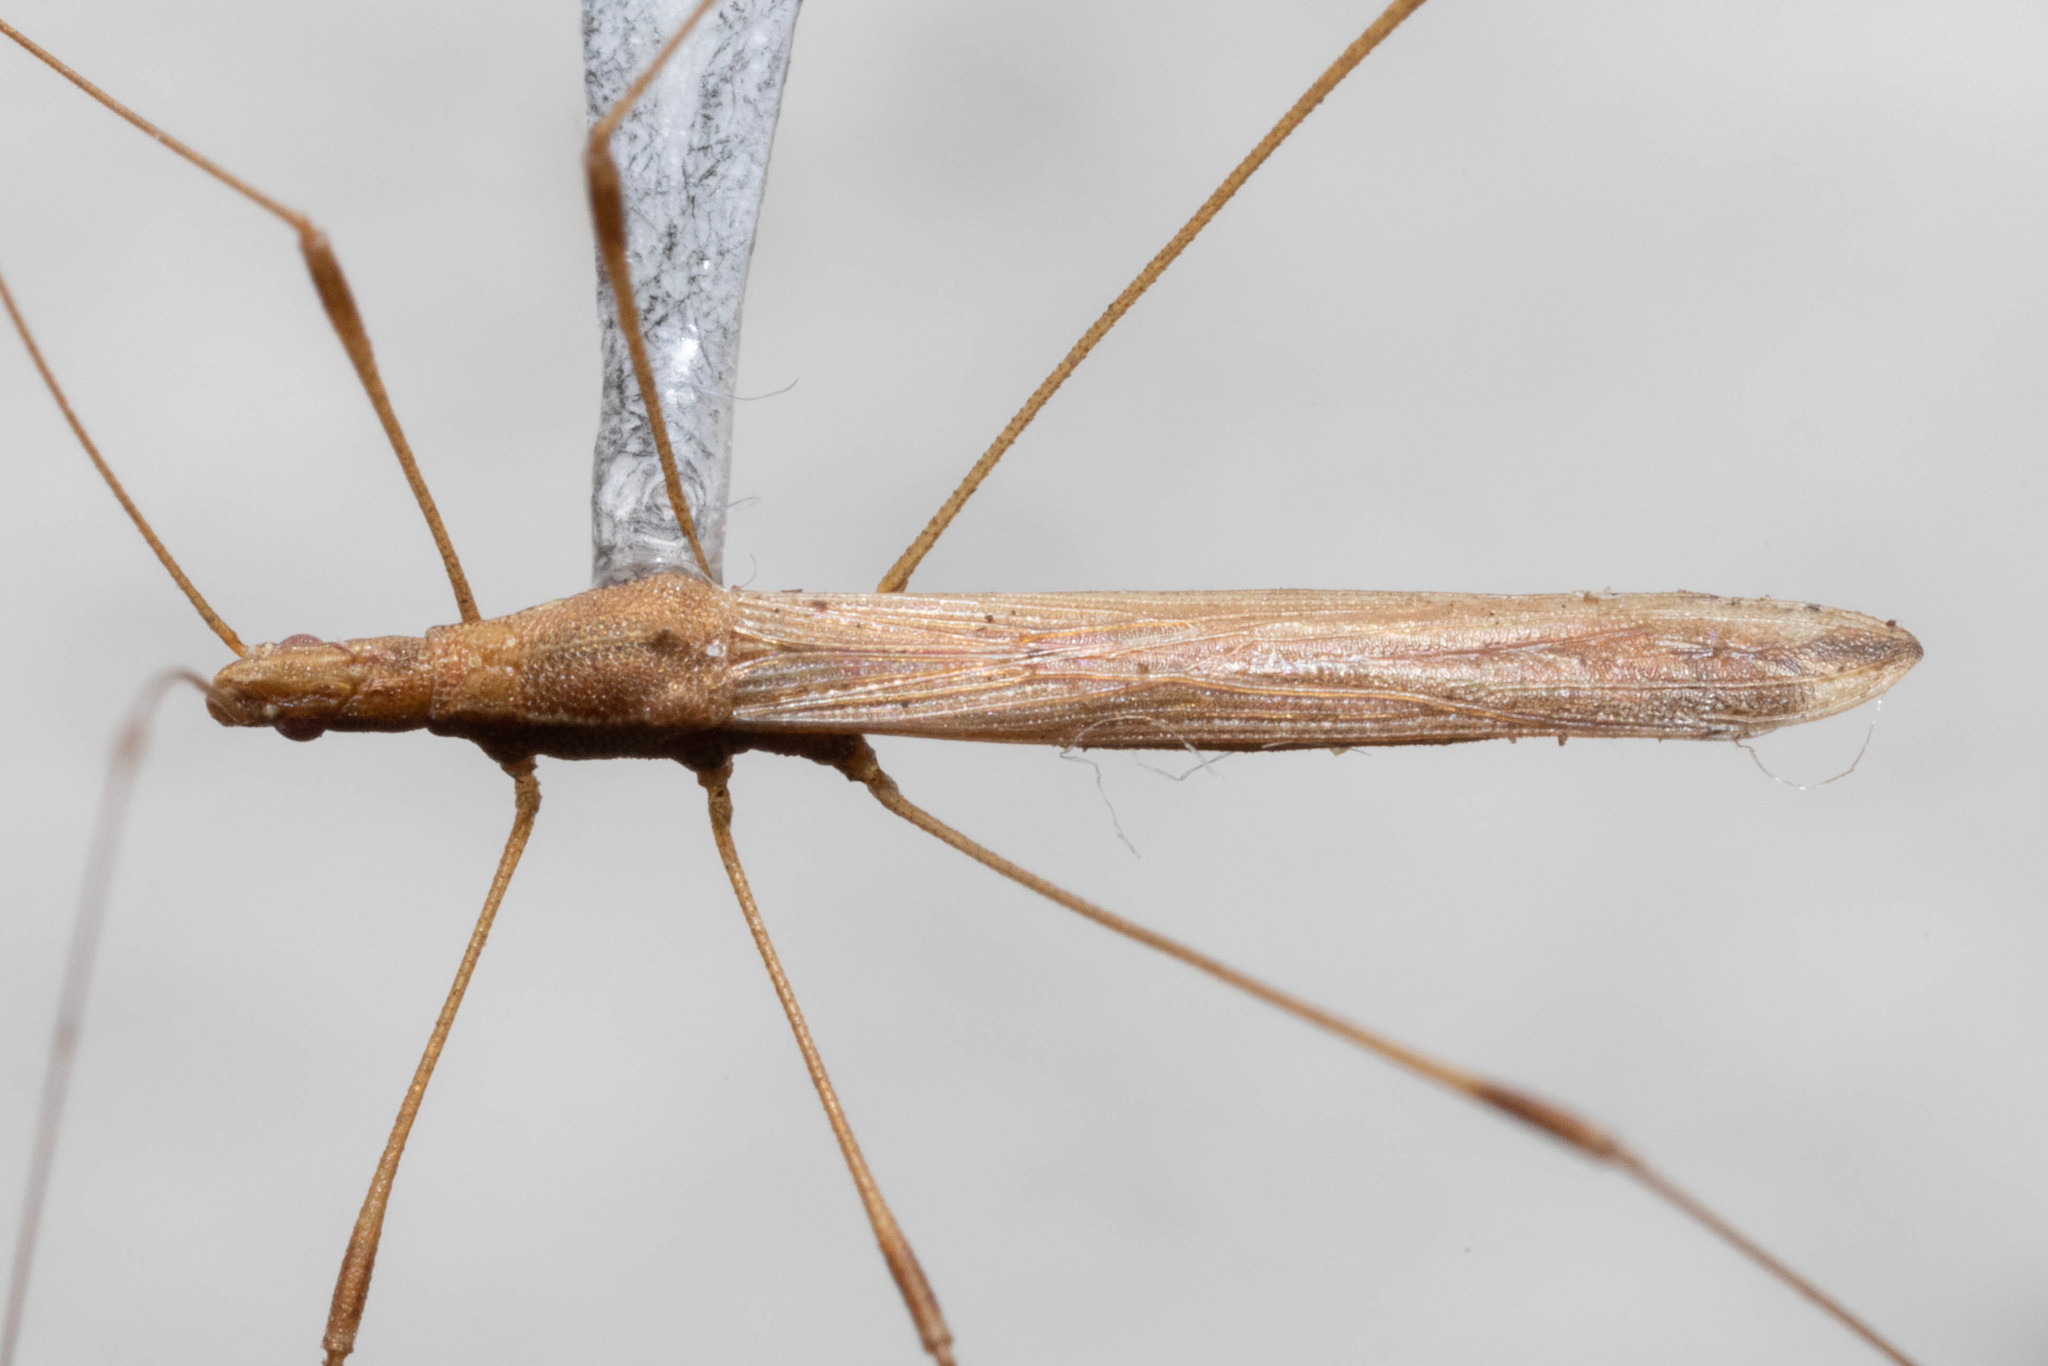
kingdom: Animalia
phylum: Arthropoda
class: Insecta
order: Hemiptera
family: Berytidae
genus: Neoneides
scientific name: Neoneides muticus
